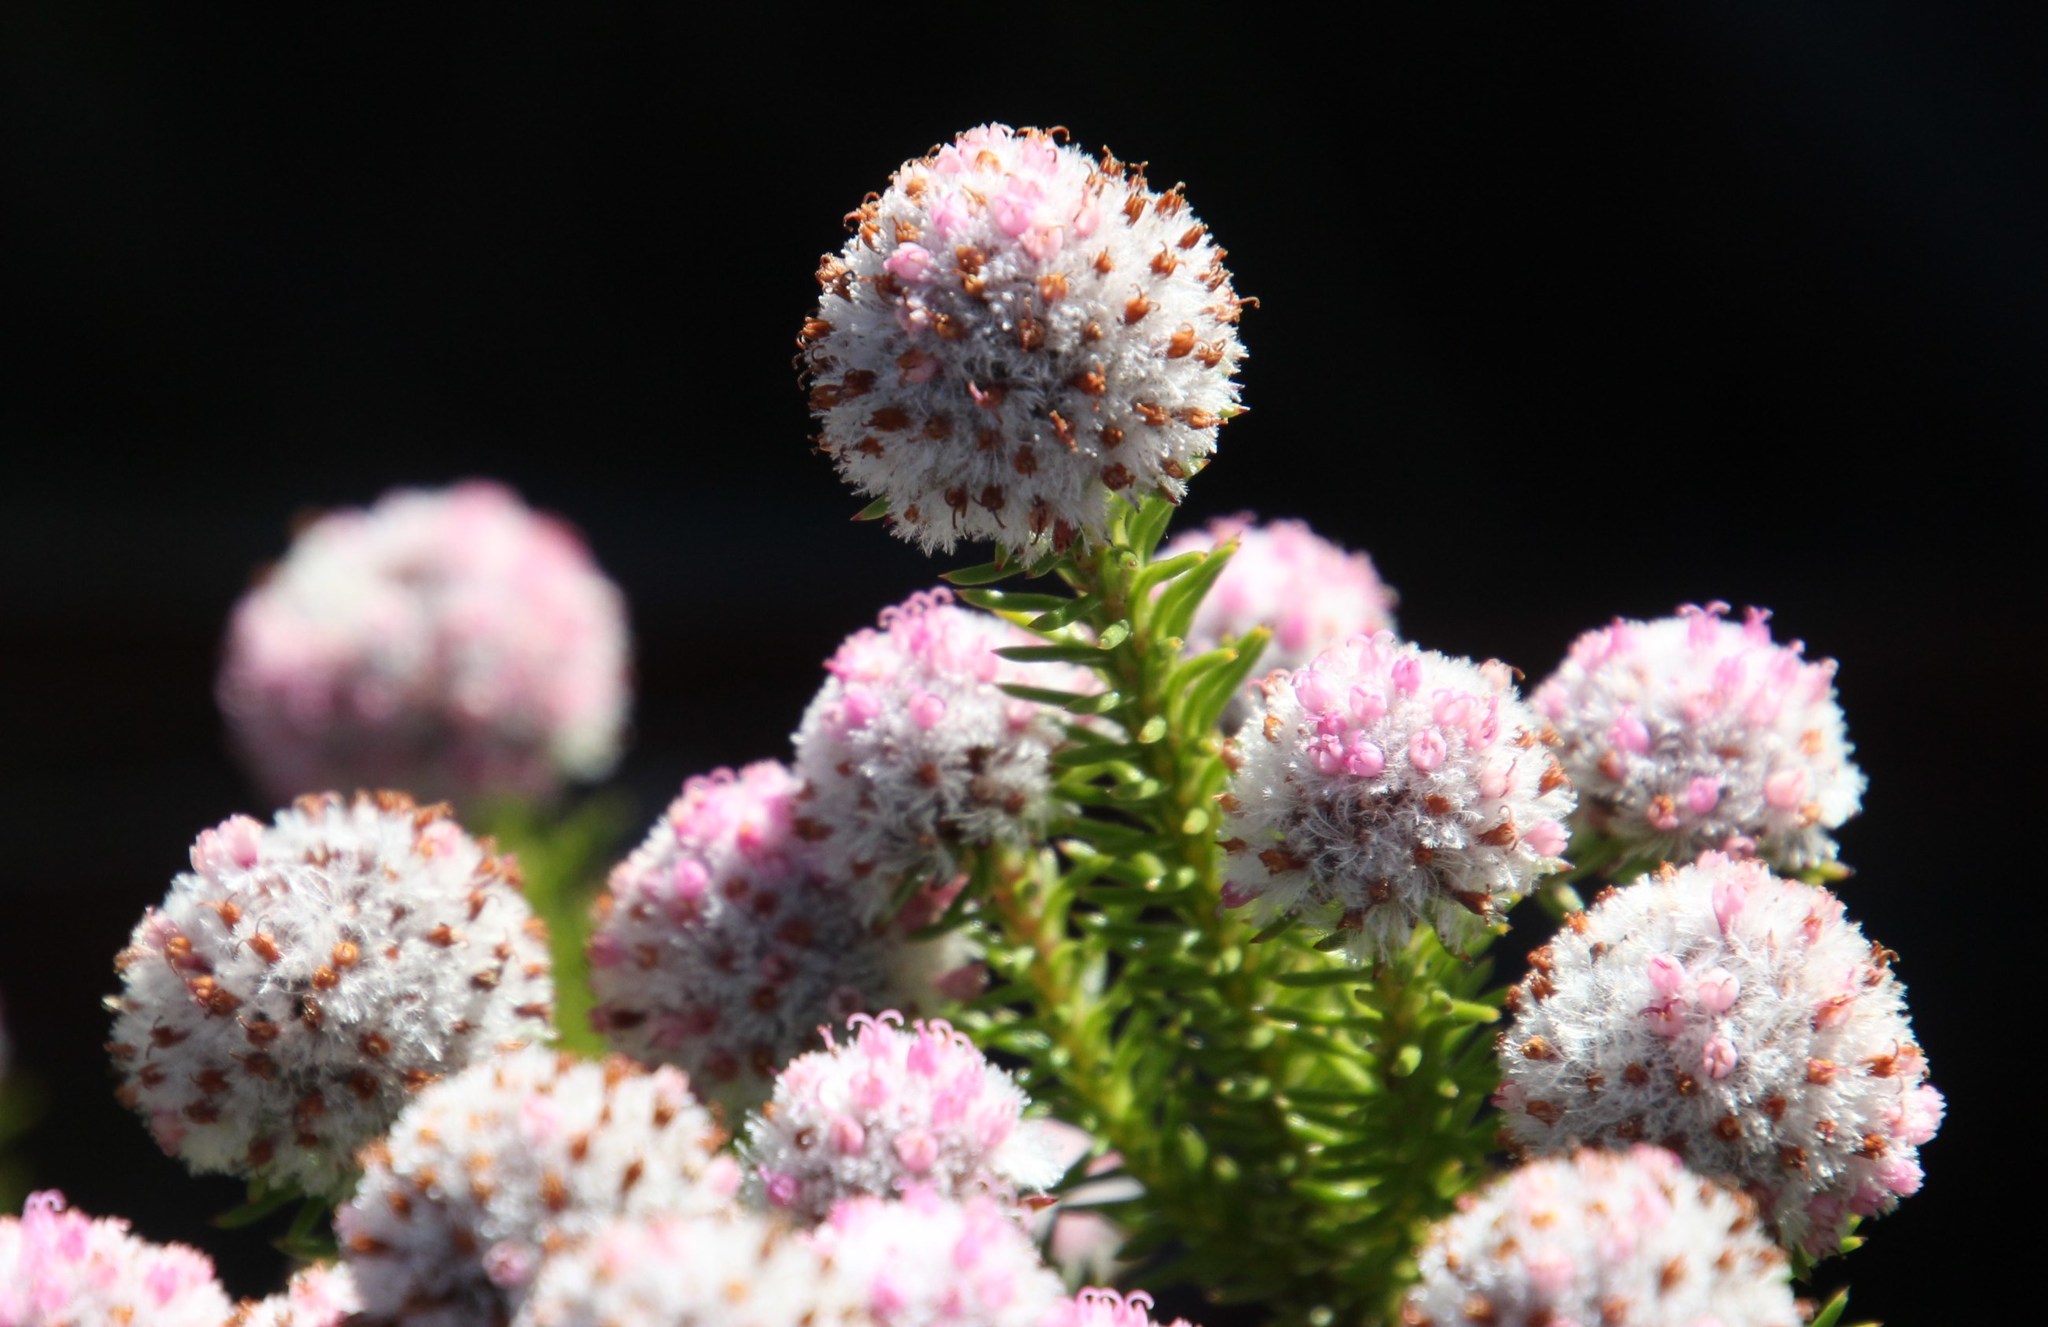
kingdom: Plantae
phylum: Tracheophyta
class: Magnoliopsida
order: Asterales
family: Asteraceae
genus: Stoebe
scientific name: Stoebe rosea
